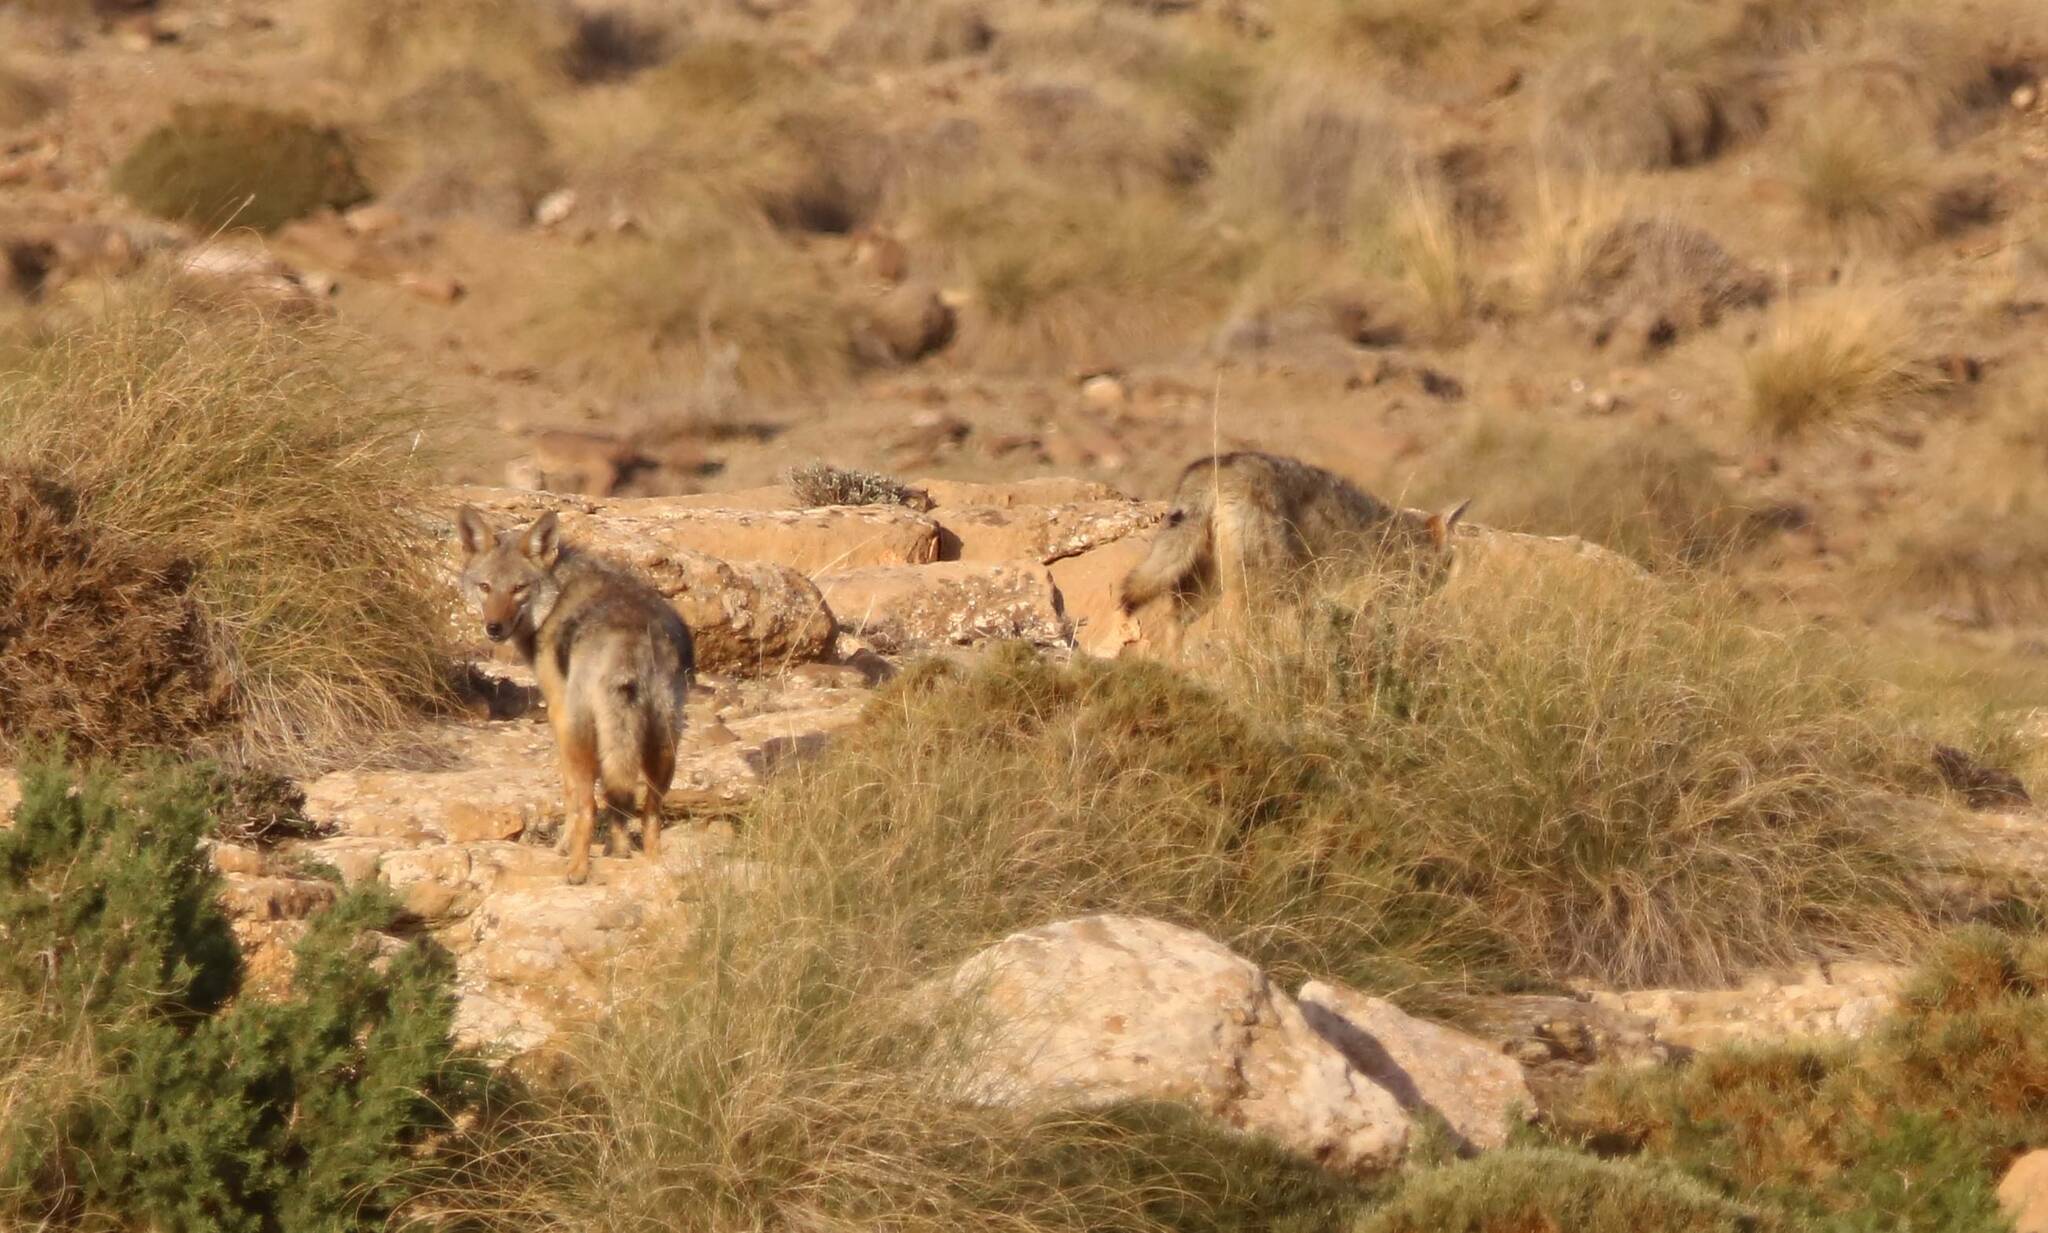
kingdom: Animalia
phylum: Chordata
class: Mammalia
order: Carnivora
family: Canidae
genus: Canis
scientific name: Canis lupaster
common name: African golden wolf
